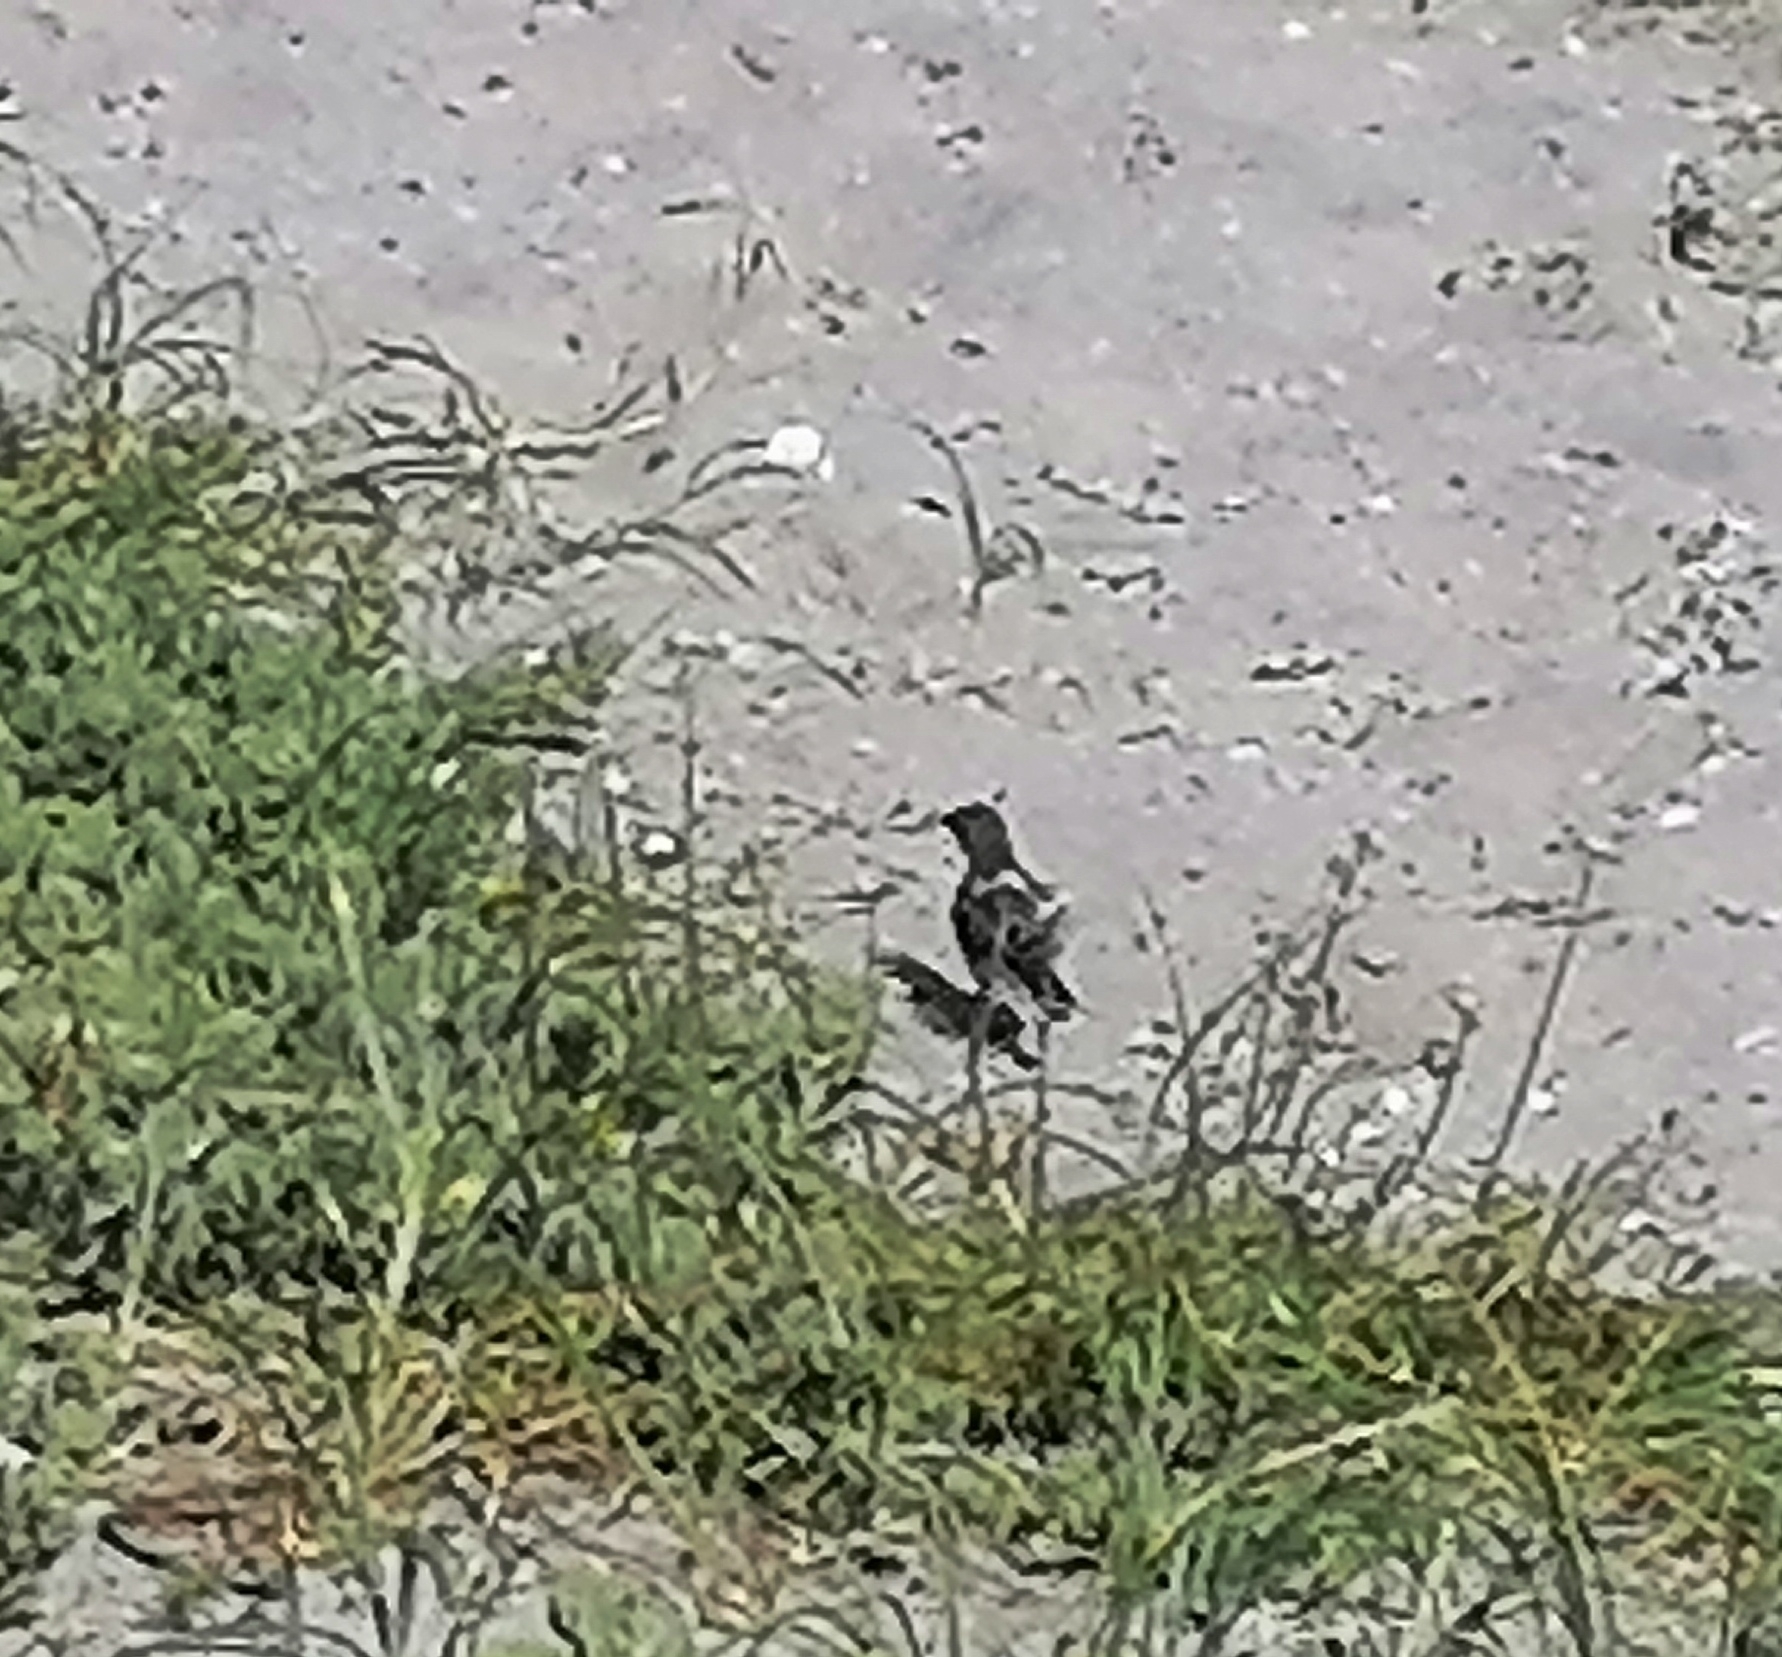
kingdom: Animalia
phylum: Chordata
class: Aves
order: Passeriformes
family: Motacillidae
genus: Motacilla
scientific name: Motacilla capensis
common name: Cape wagtail
